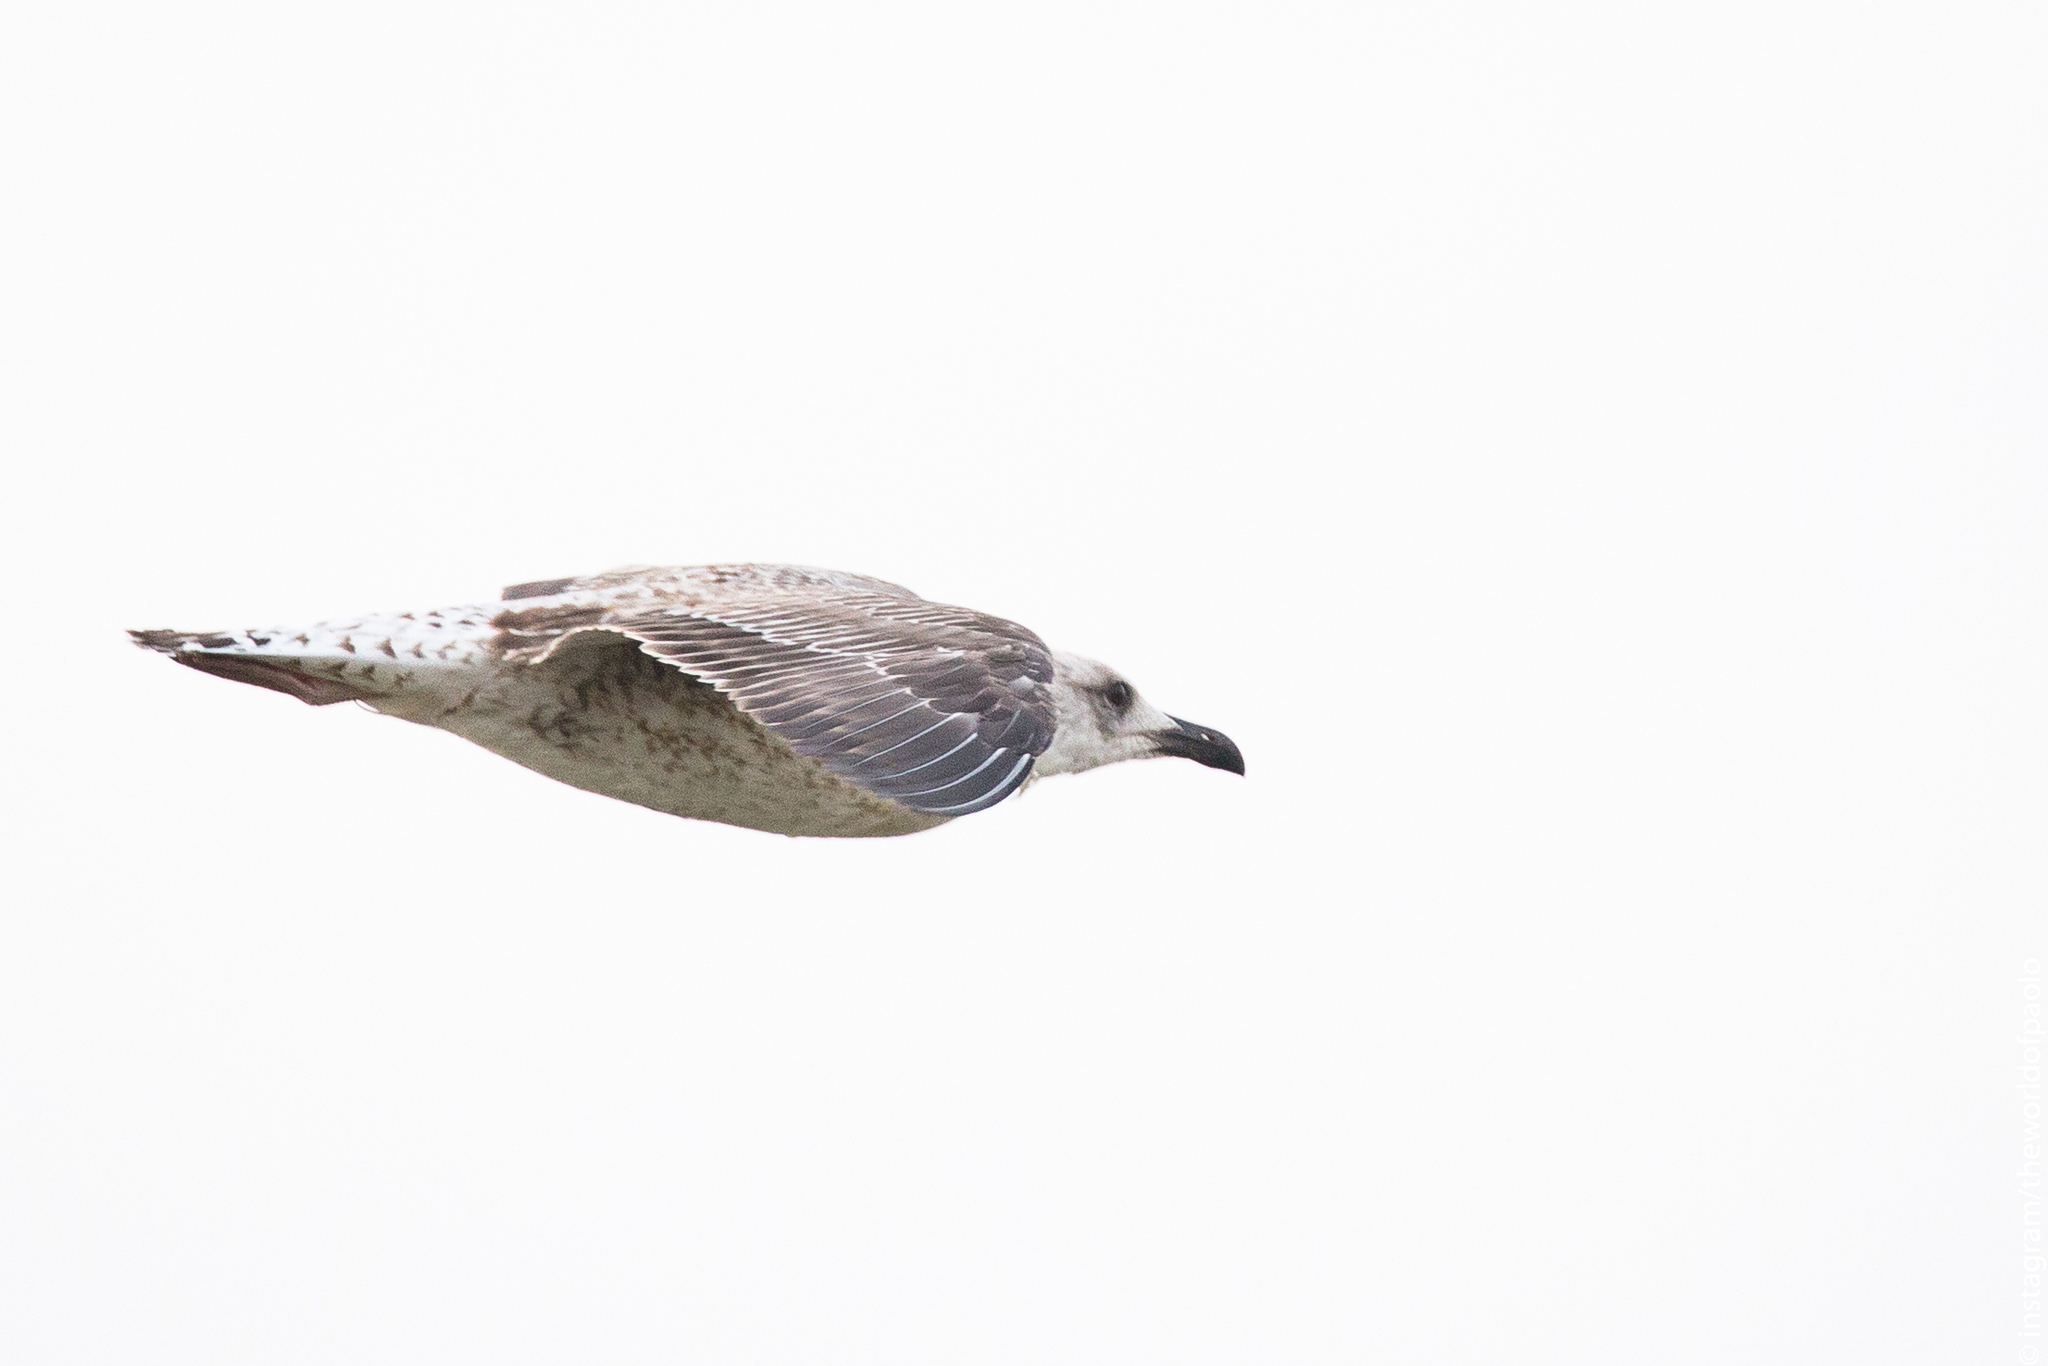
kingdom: Animalia
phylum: Chordata
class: Aves
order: Charadriiformes
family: Laridae
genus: Larus
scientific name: Larus michahellis
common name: Yellow-legged gull
